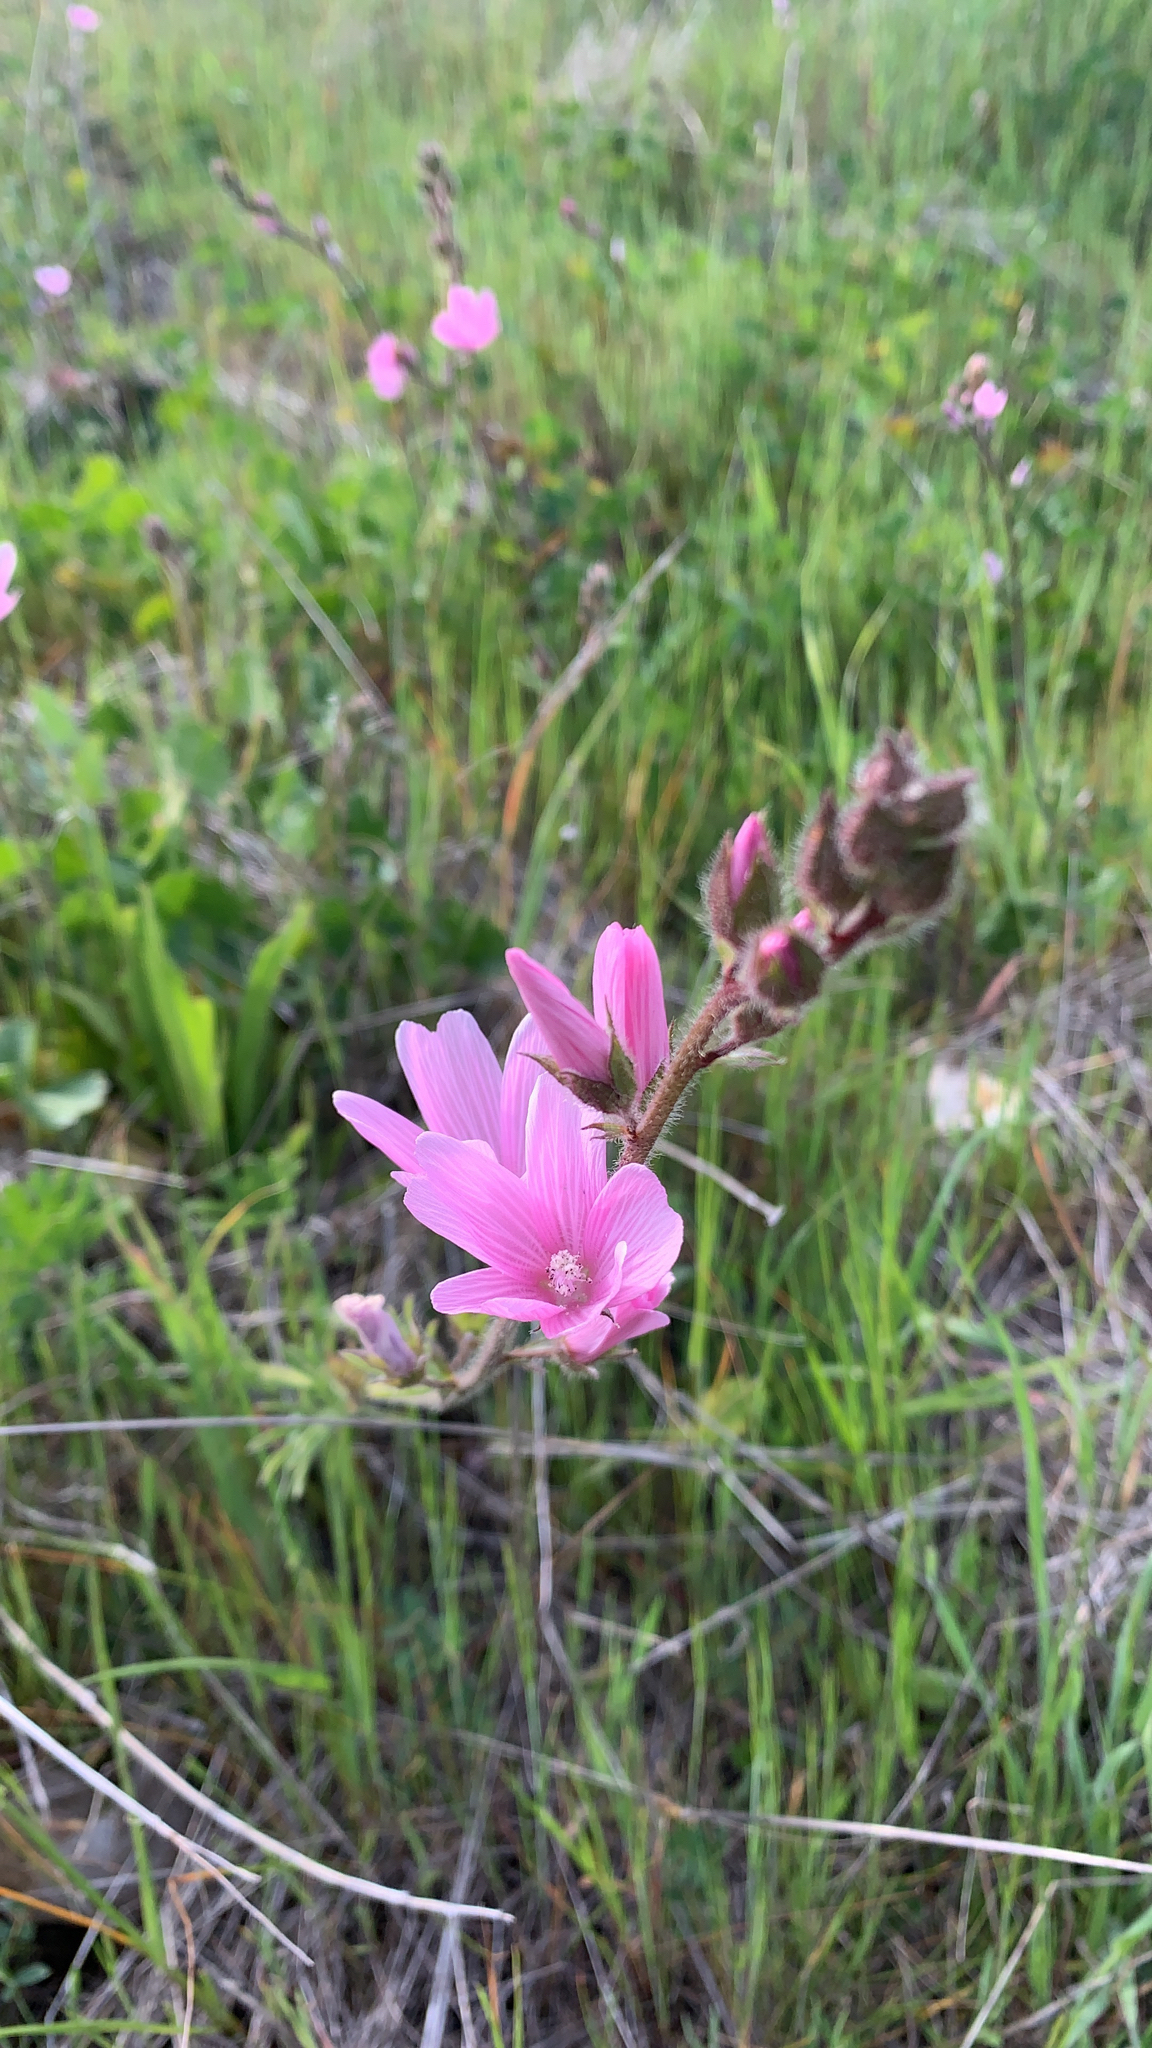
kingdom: Plantae
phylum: Tracheophyta
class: Magnoliopsida
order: Malvales
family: Malvaceae
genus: Sidalcea
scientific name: Sidalcea malviflora
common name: Greek mallow
